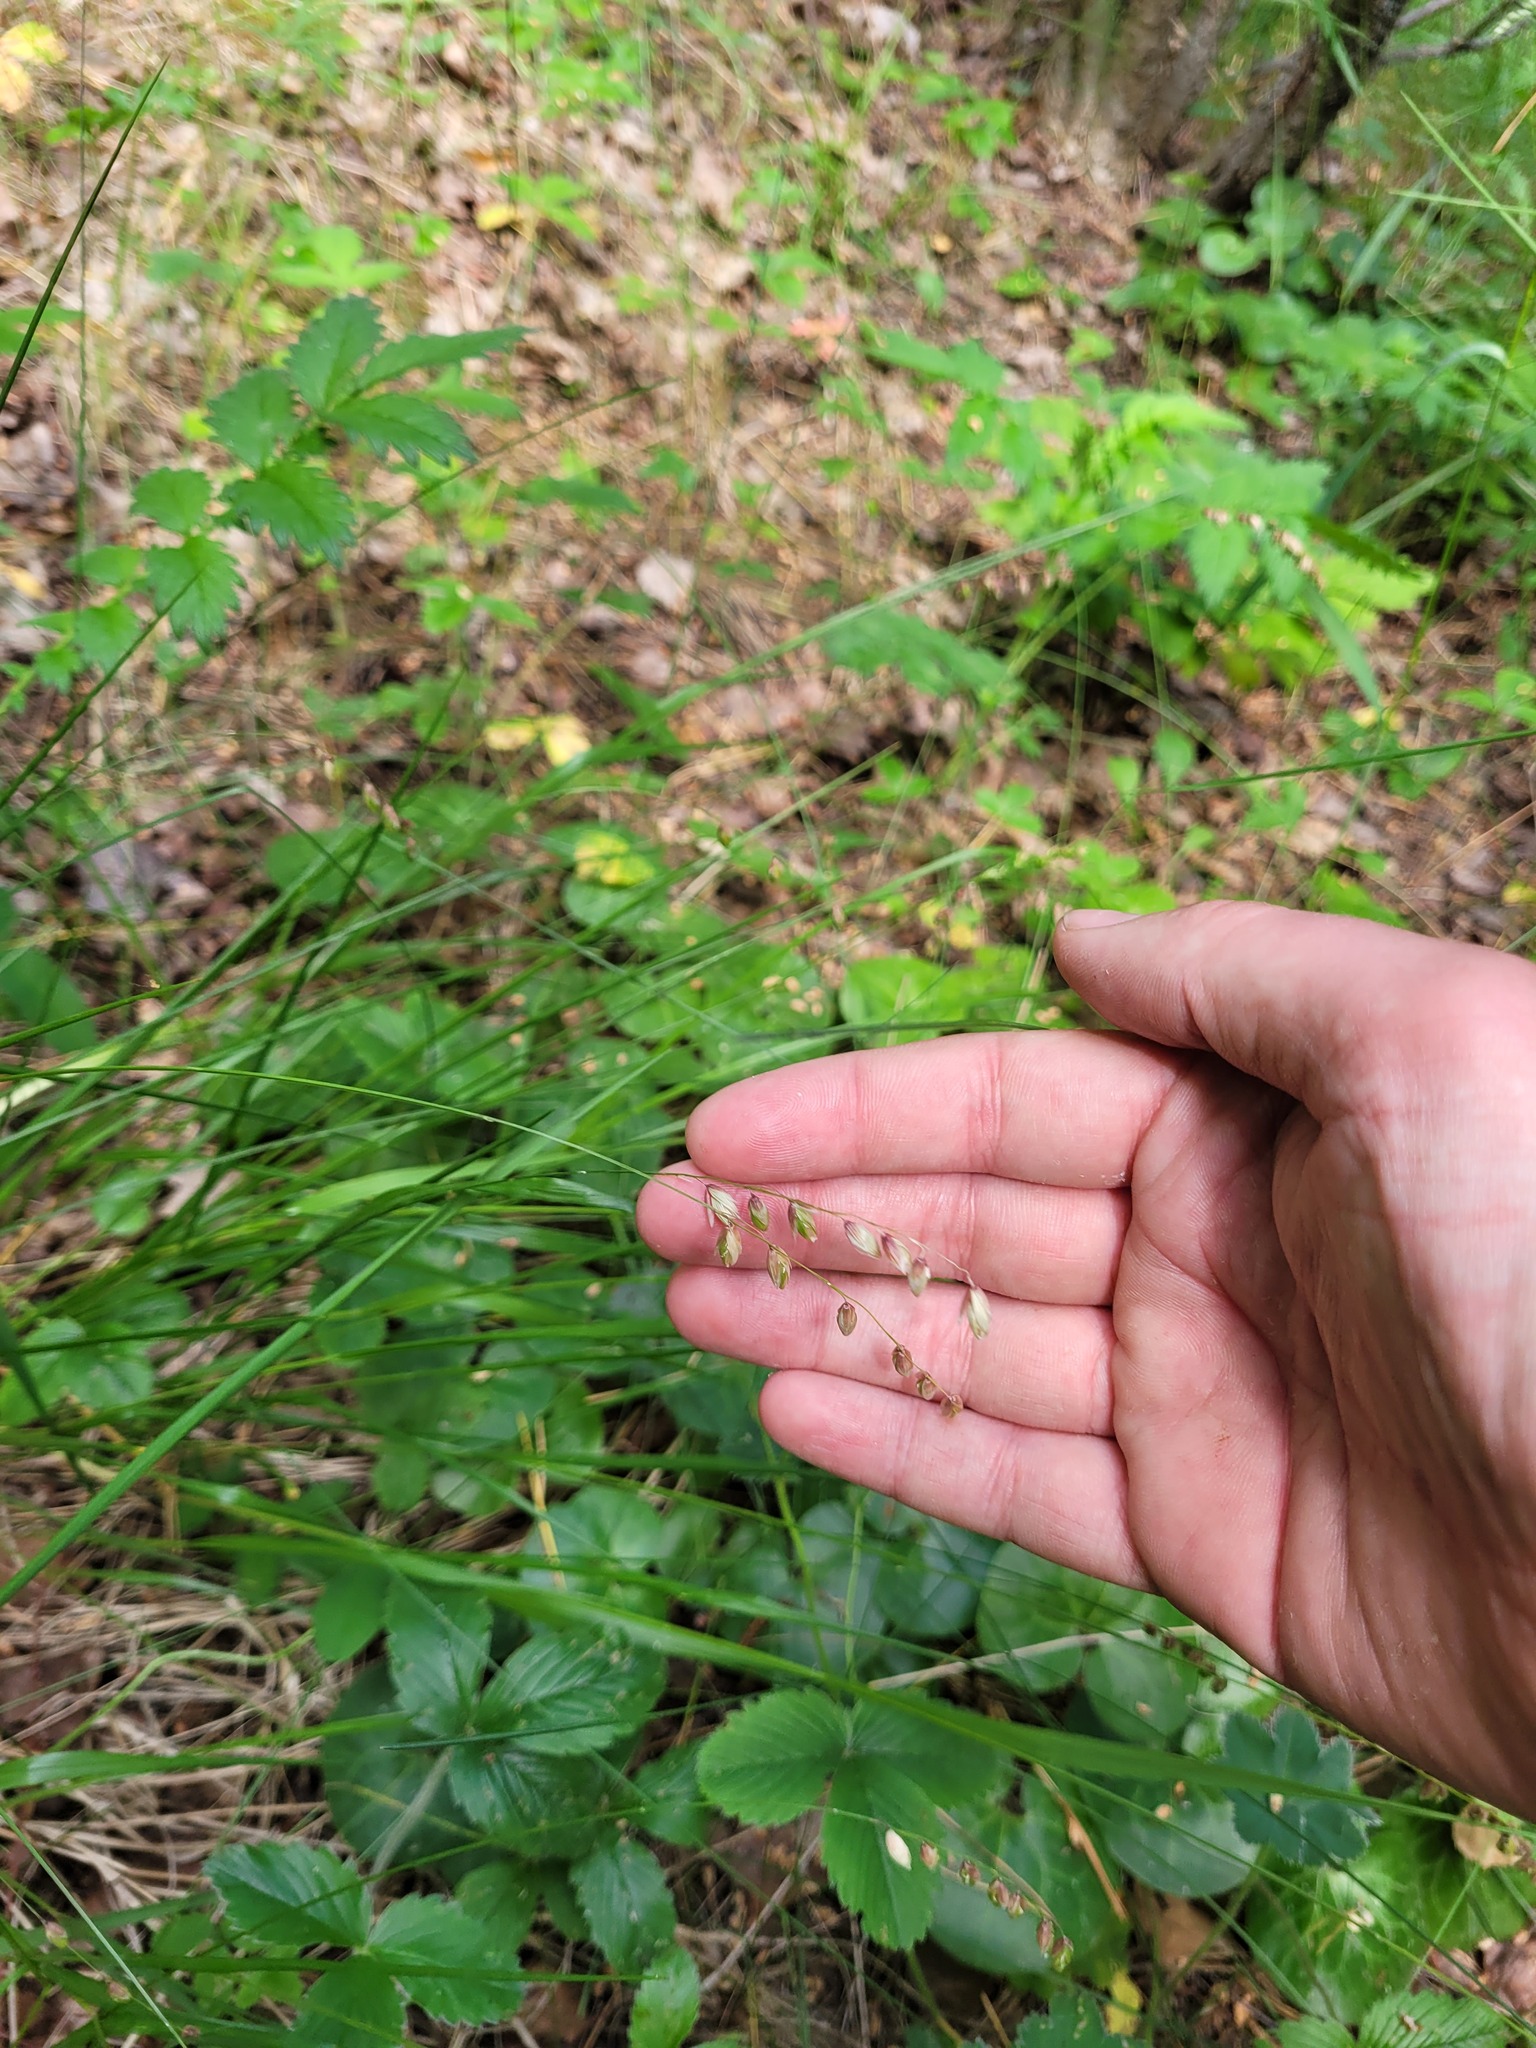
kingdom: Plantae
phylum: Tracheophyta
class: Liliopsida
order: Poales
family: Poaceae
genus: Melica
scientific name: Melica nutans
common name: Mountain melick
